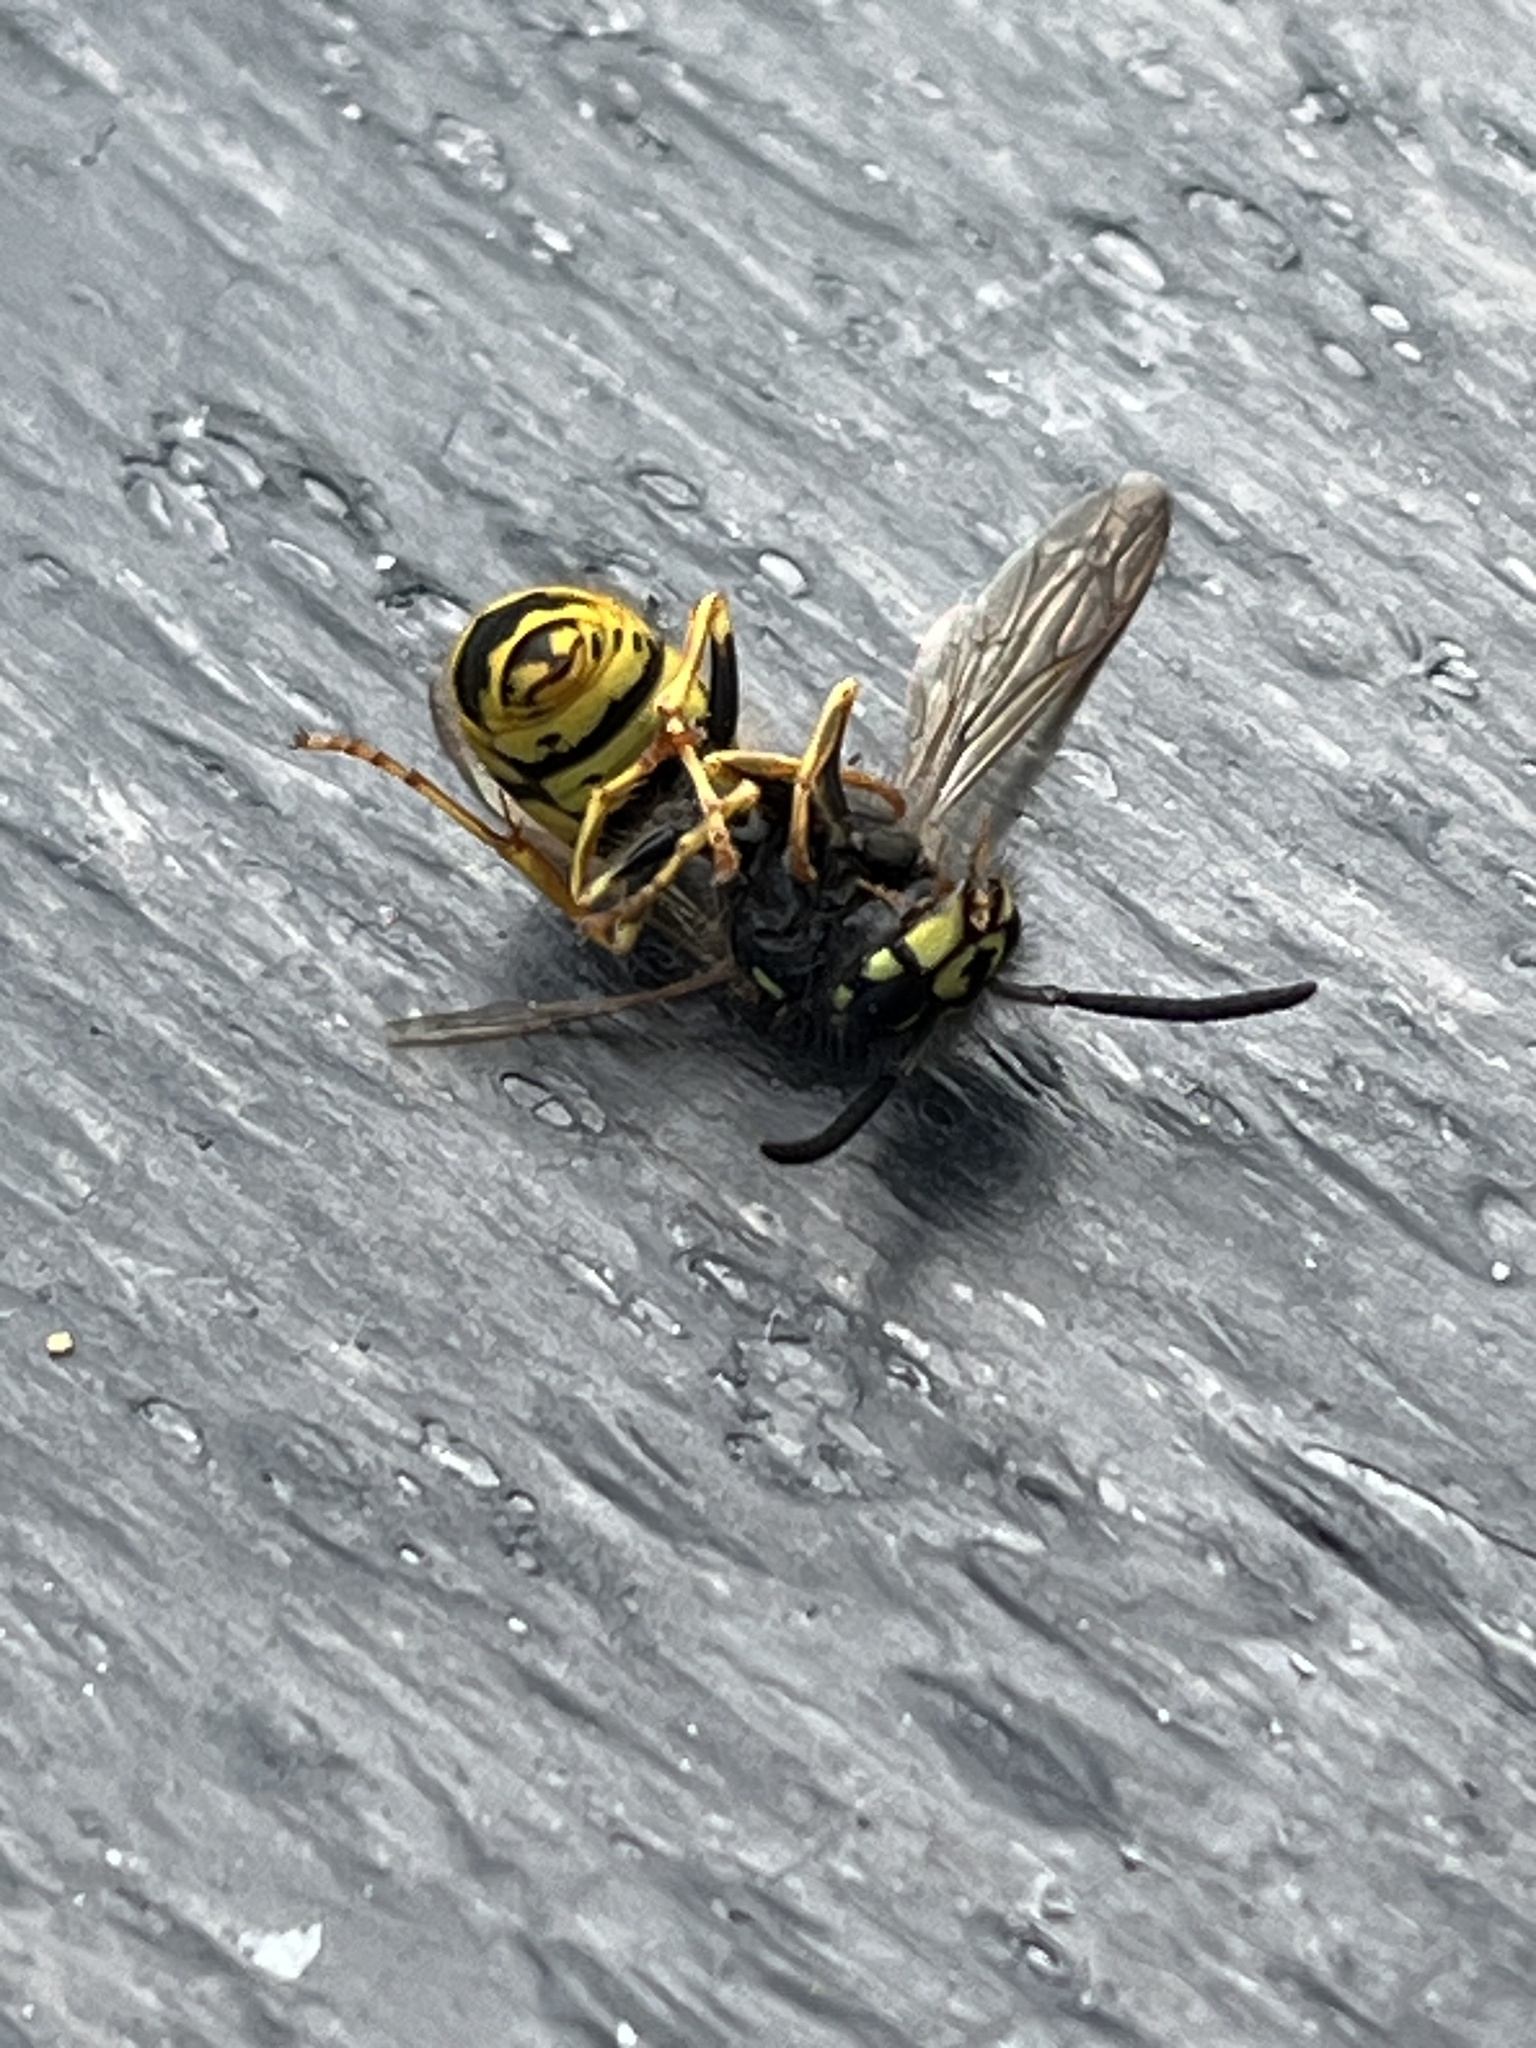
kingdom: Animalia
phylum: Arthropoda
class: Insecta
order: Hymenoptera
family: Vespidae
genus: Vespula
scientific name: Vespula vulgaris
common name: Common wasp
